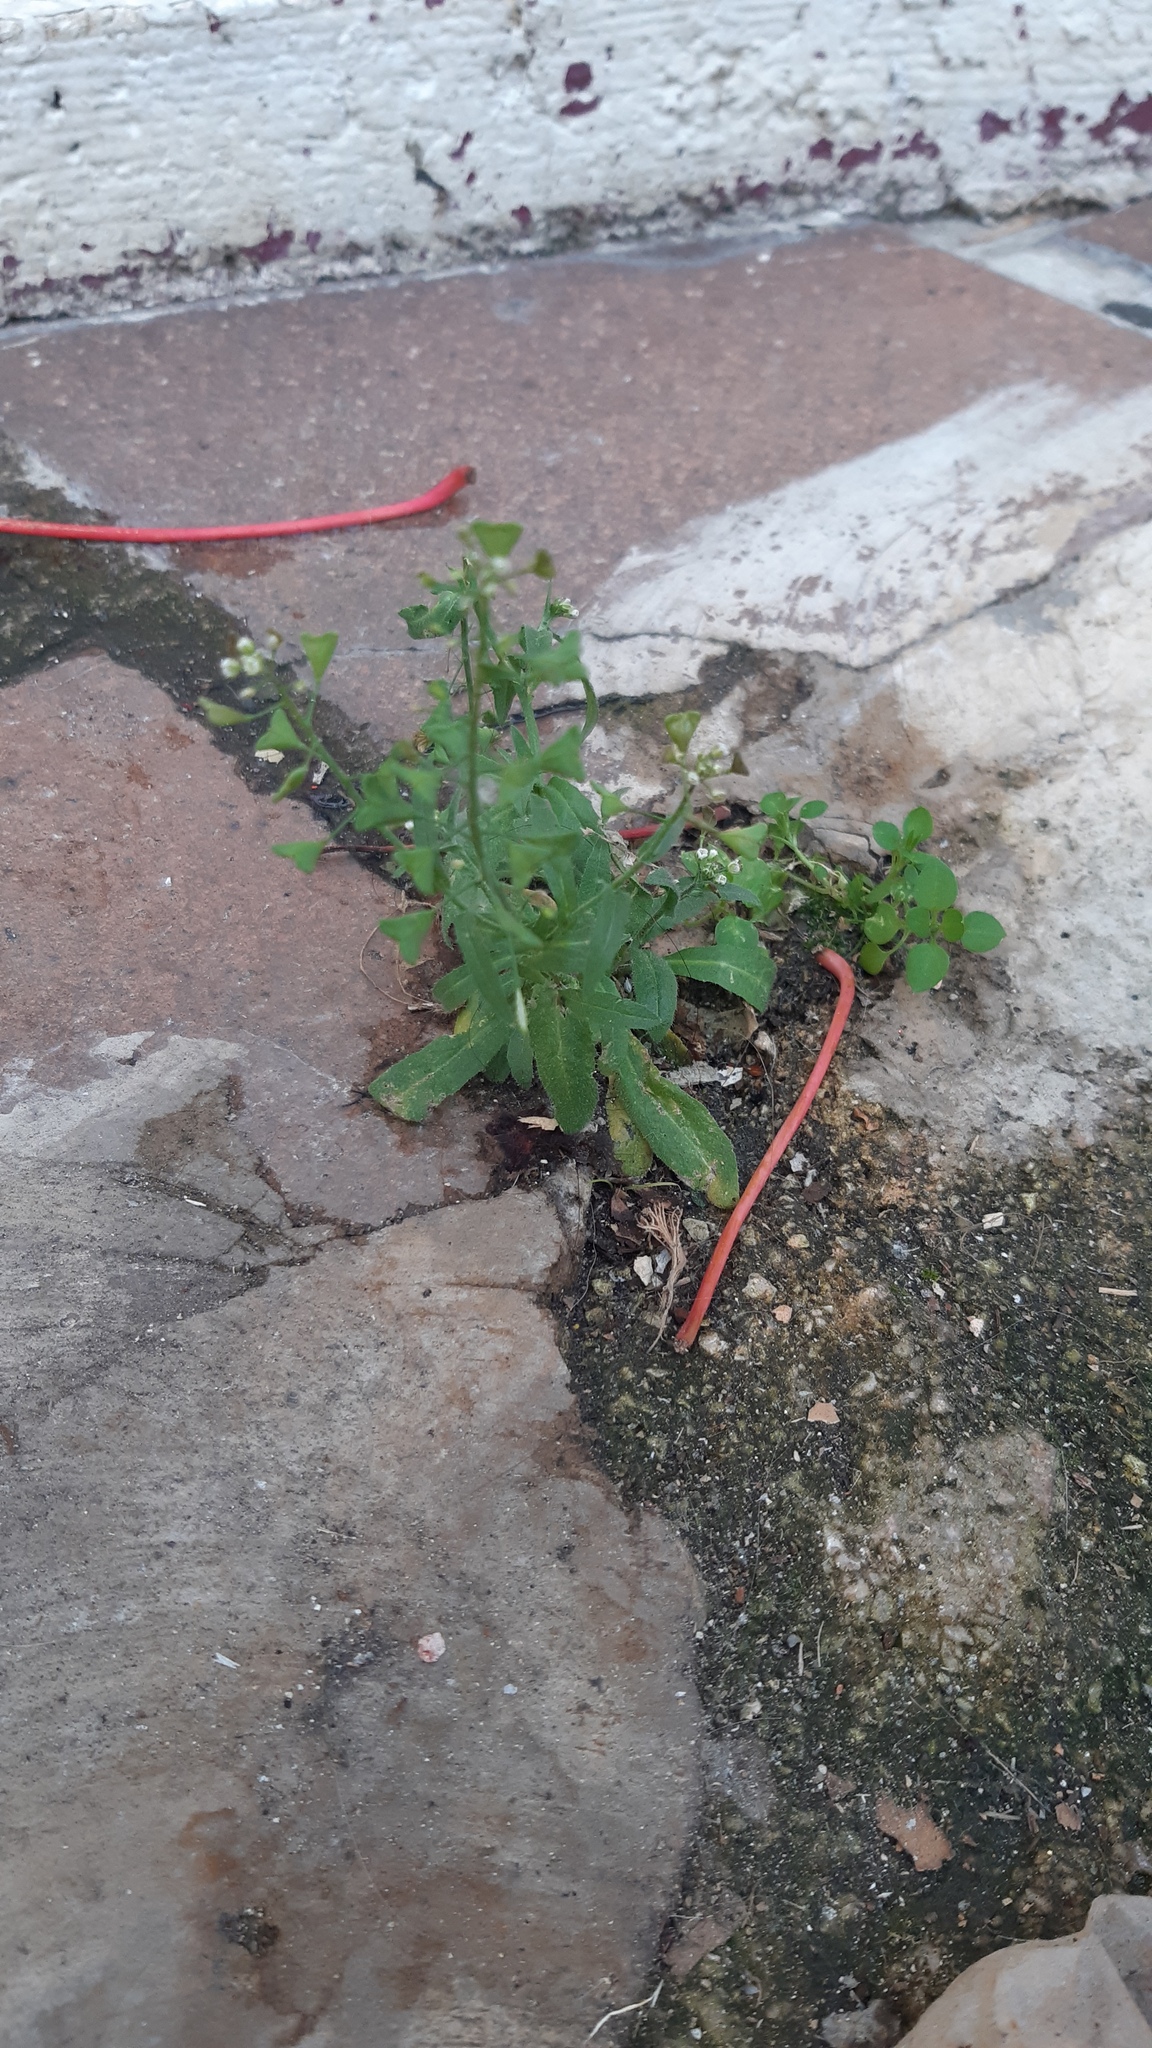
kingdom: Plantae
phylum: Tracheophyta
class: Magnoliopsida
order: Brassicales
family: Brassicaceae
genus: Capsella
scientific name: Capsella bursa-pastoris
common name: Shepherd's purse
